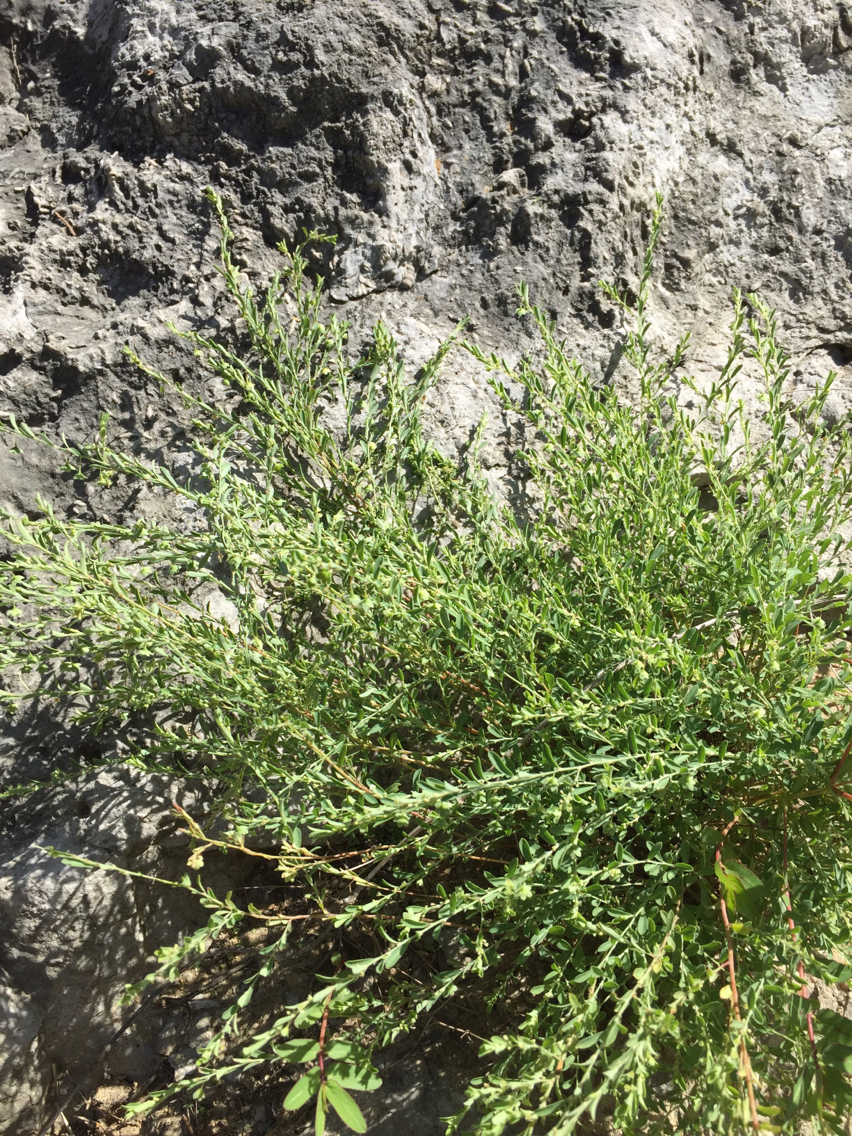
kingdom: Plantae
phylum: Tracheophyta
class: Magnoliopsida
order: Malpighiales
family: Phyllanthaceae
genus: Phyllanthus
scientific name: Phyllanthus polygonoides
